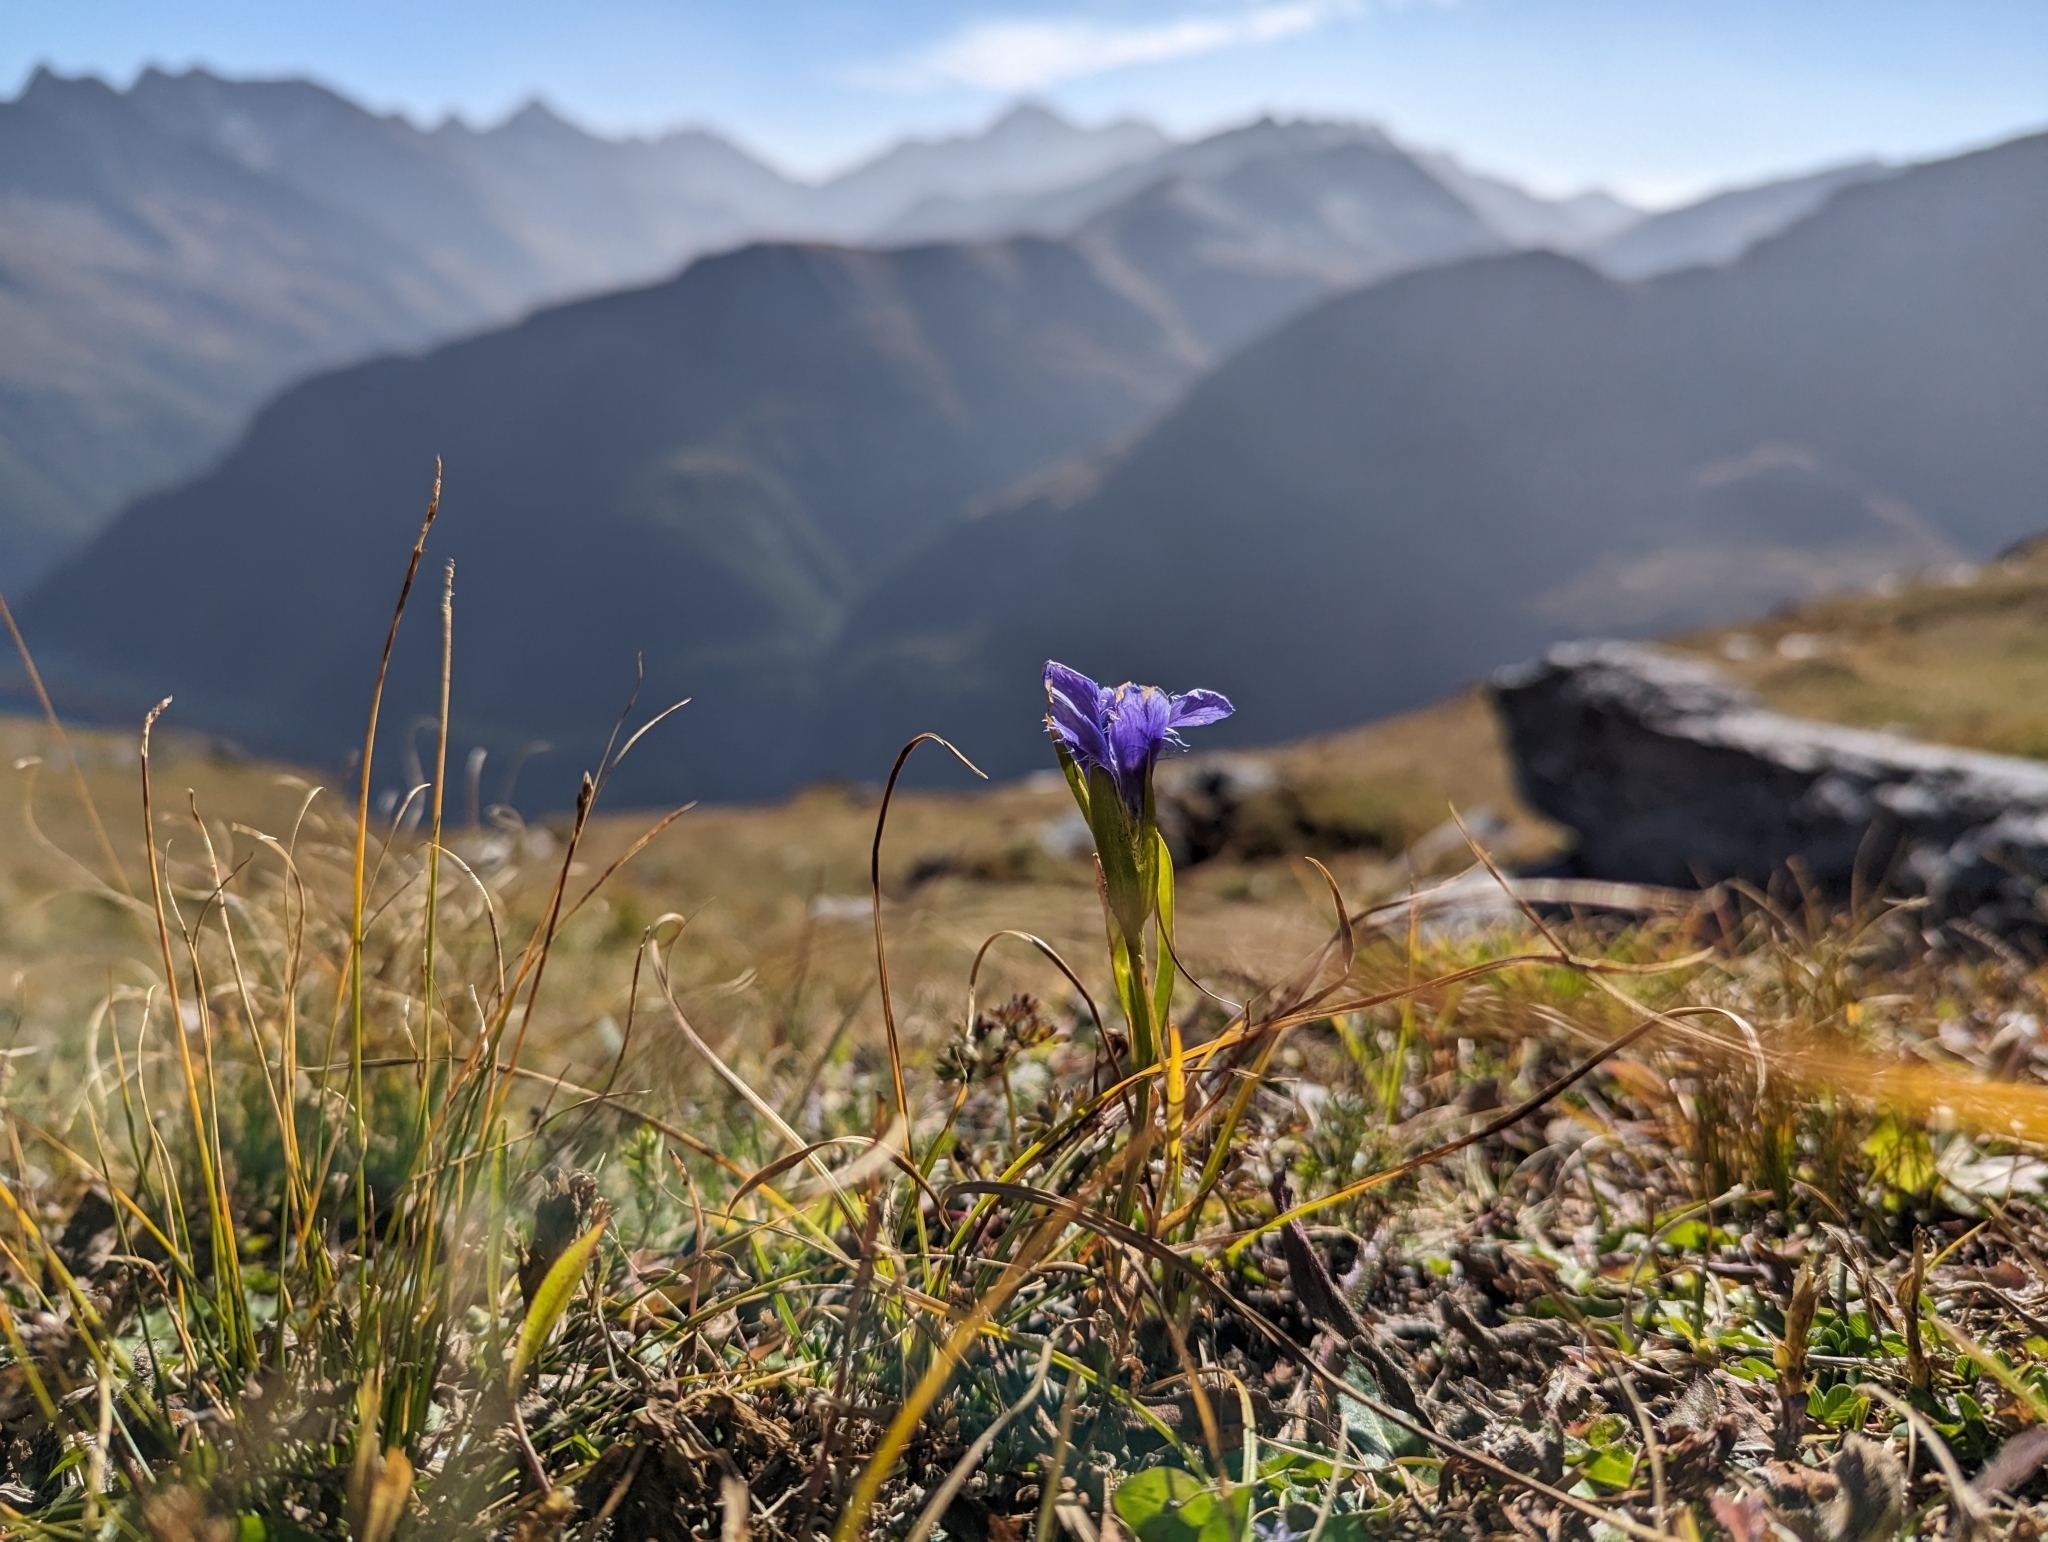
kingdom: Plantae
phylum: Tracheophyta
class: Magnoliopsida
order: Gentianales
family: Gentianaceae
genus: Gentianopsis
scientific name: Gentianopsis ciliata
